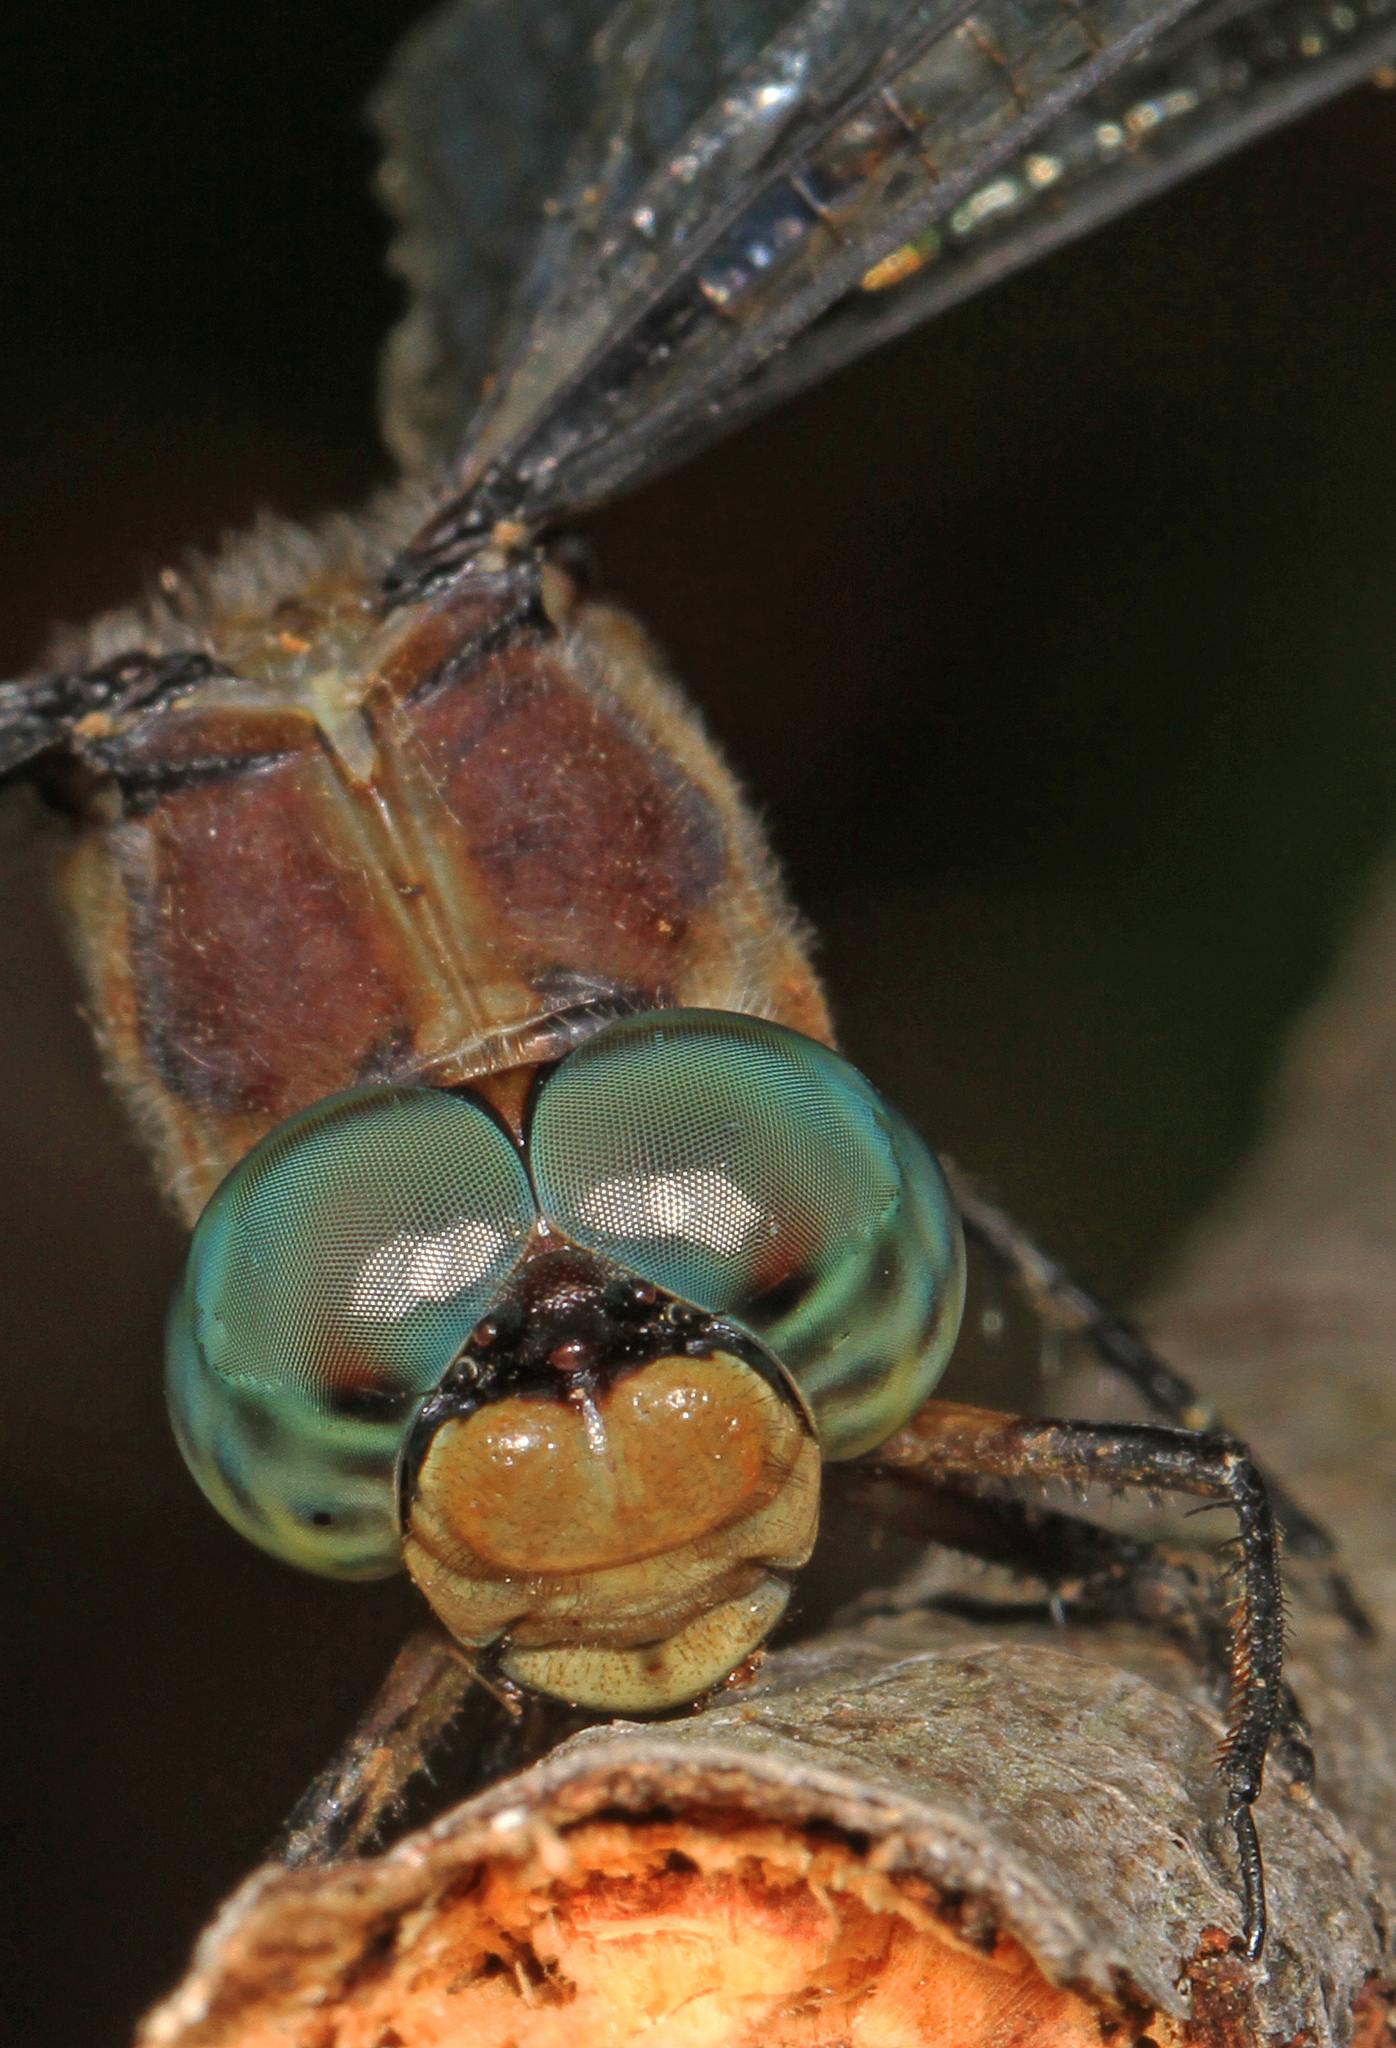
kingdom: Animalia
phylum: Arthropoda
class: Insecta
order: Odonata
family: Libellulidae
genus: Libellula
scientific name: Libellula vibrans
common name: Great blue skimmer
